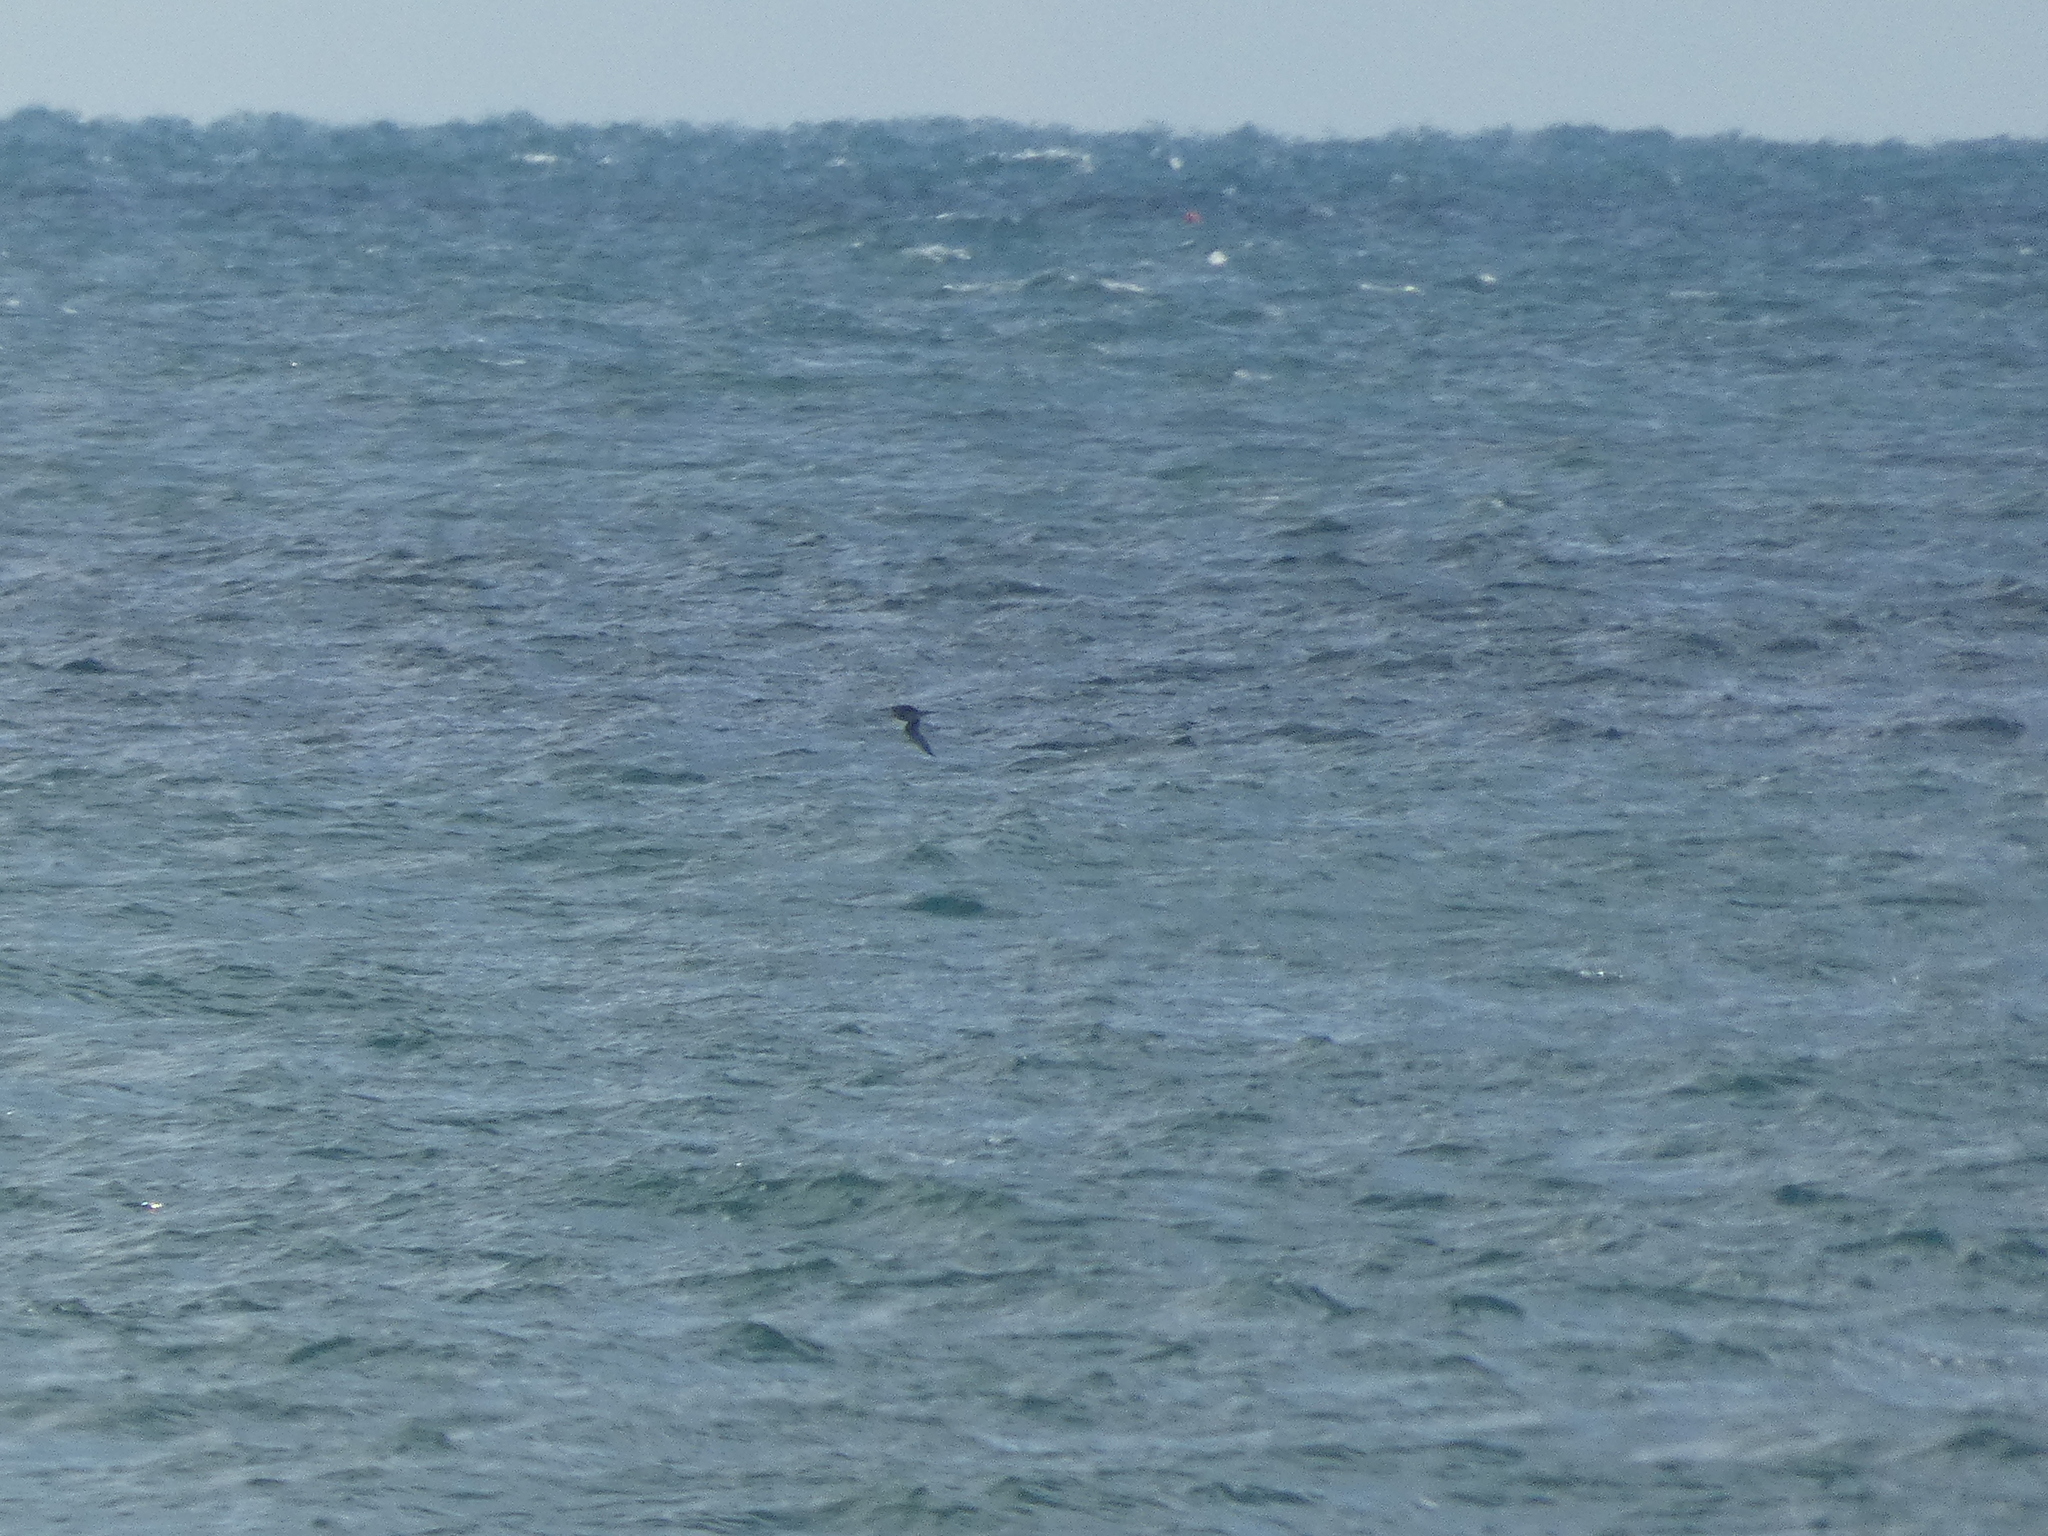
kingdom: Animalia
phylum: Chordata
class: Aves
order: Charadriiformes
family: Stercorariidae
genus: Stercorarius
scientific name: Stercorarius longicaudus
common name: Long-tailed jaeger
